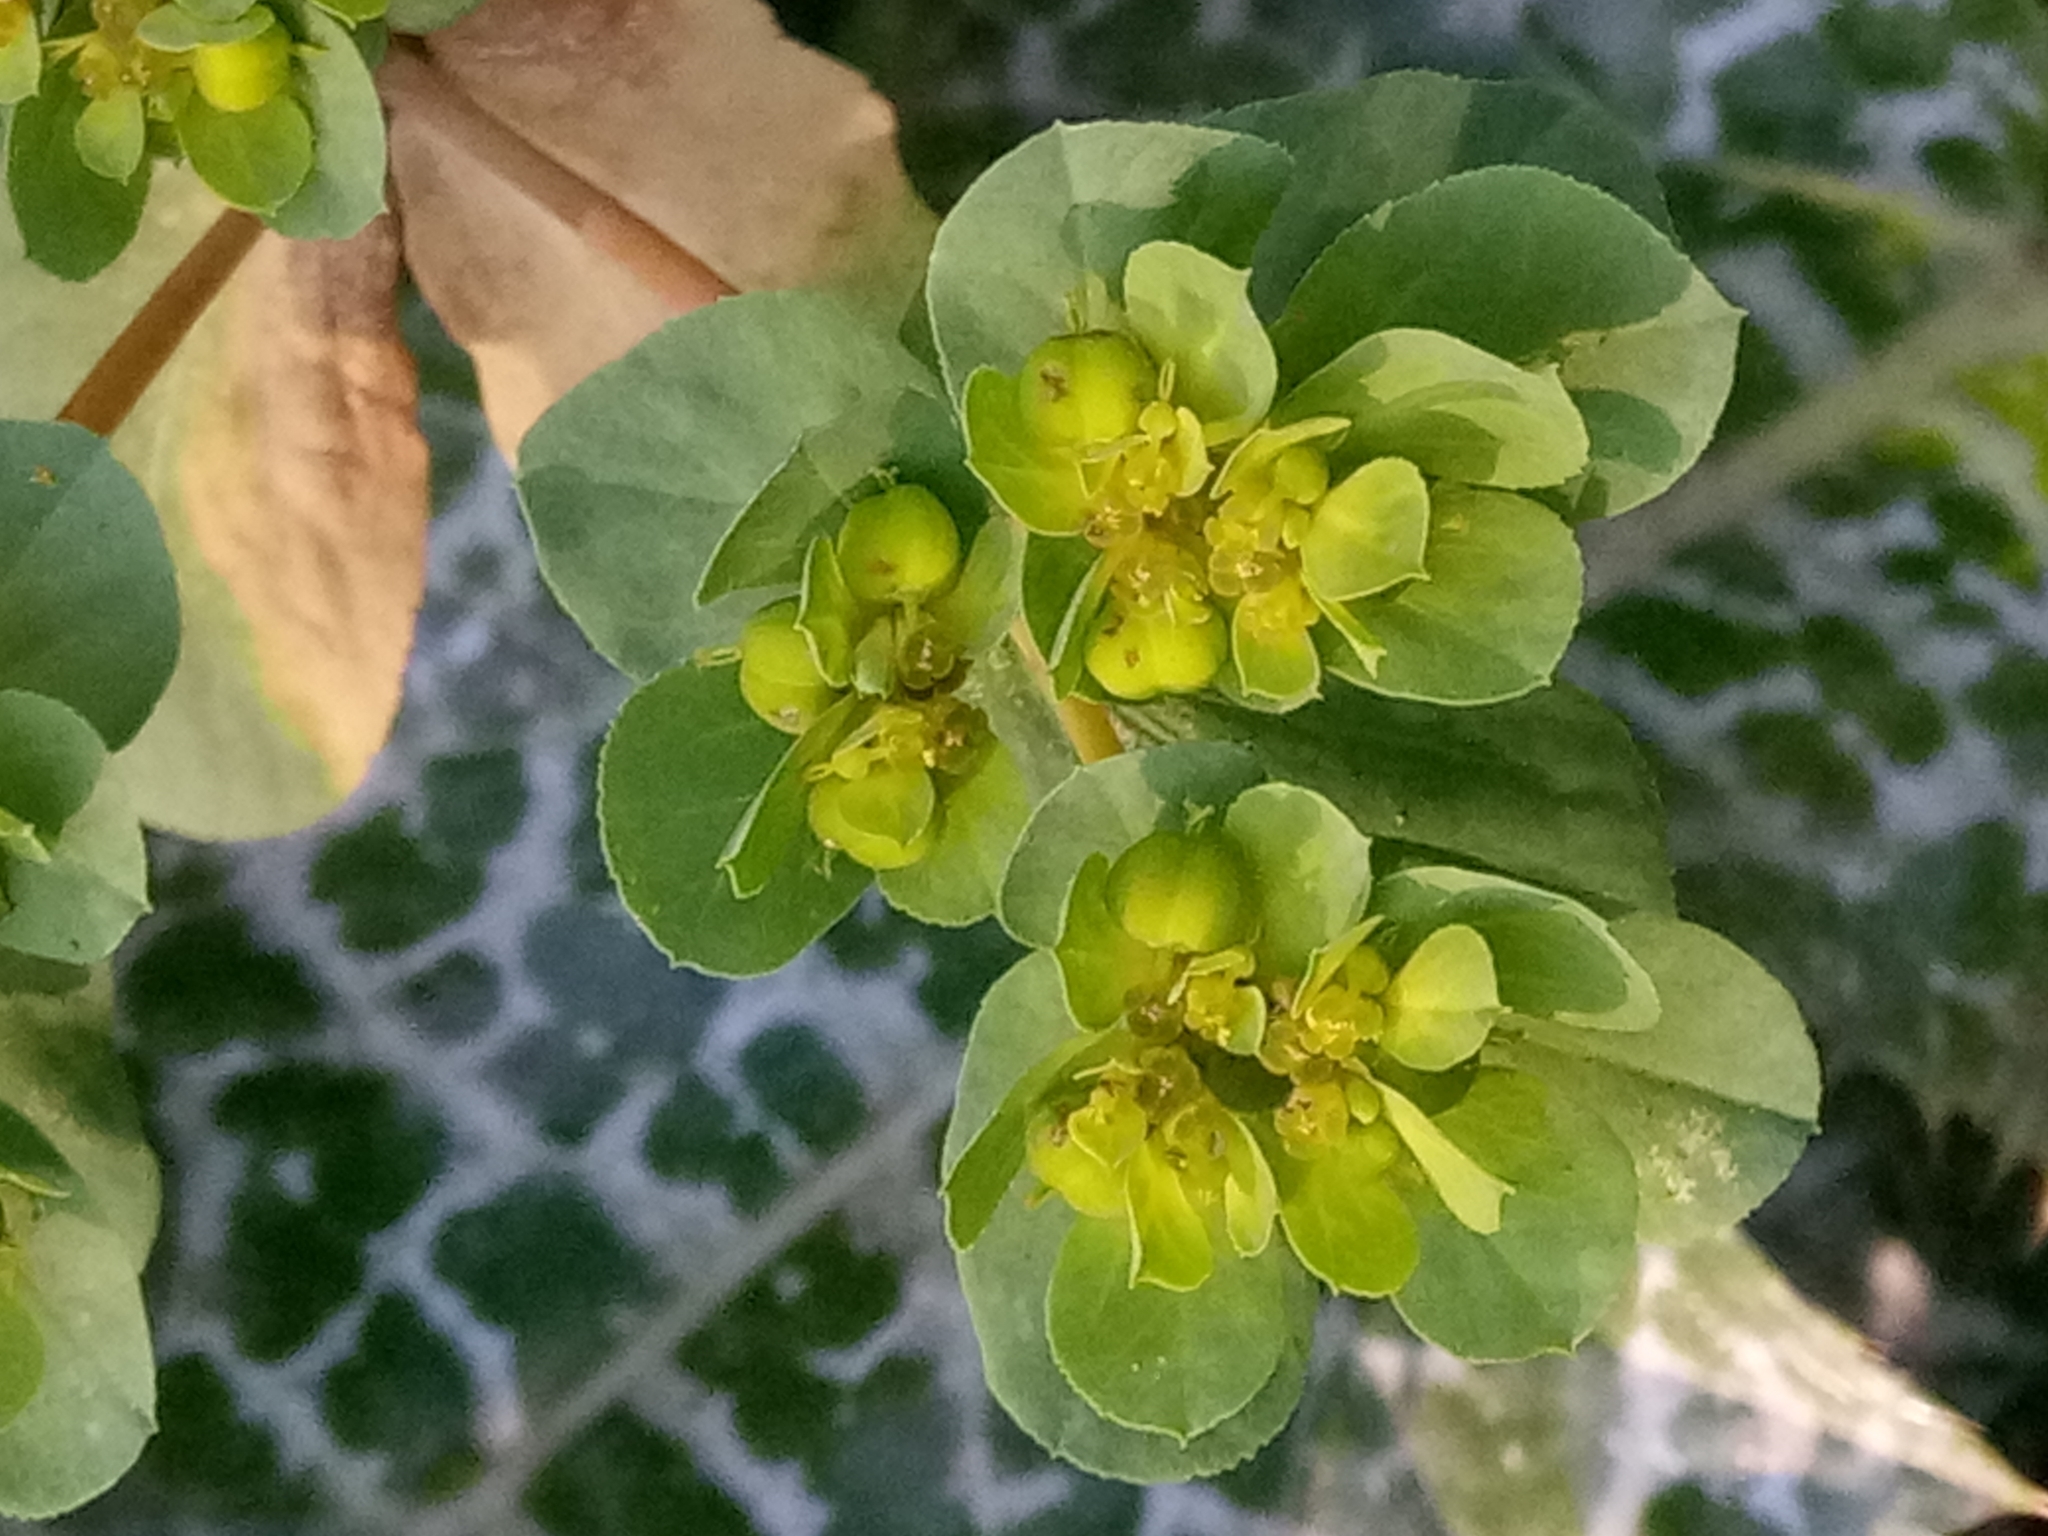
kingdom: Plantae
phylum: Tracheophyta
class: Magnoliopsida
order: Malpighiales
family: Euphorbiaceae
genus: Euphorbia
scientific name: Euphorbia helioscopia
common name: Sun spurge
